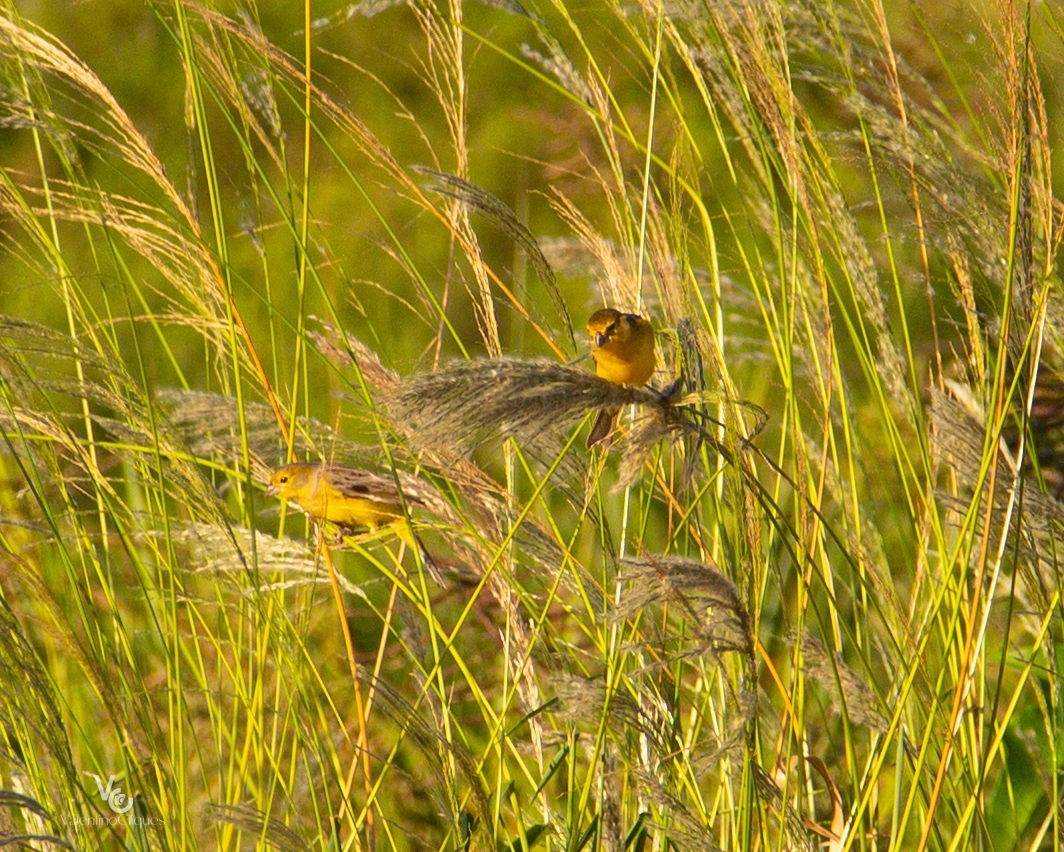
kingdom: Animalia
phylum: Chordata
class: Aves
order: Passeriformes
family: Thraupidae
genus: Sicalis
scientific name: Sicalis luteola
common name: Grassland yellow-finch
